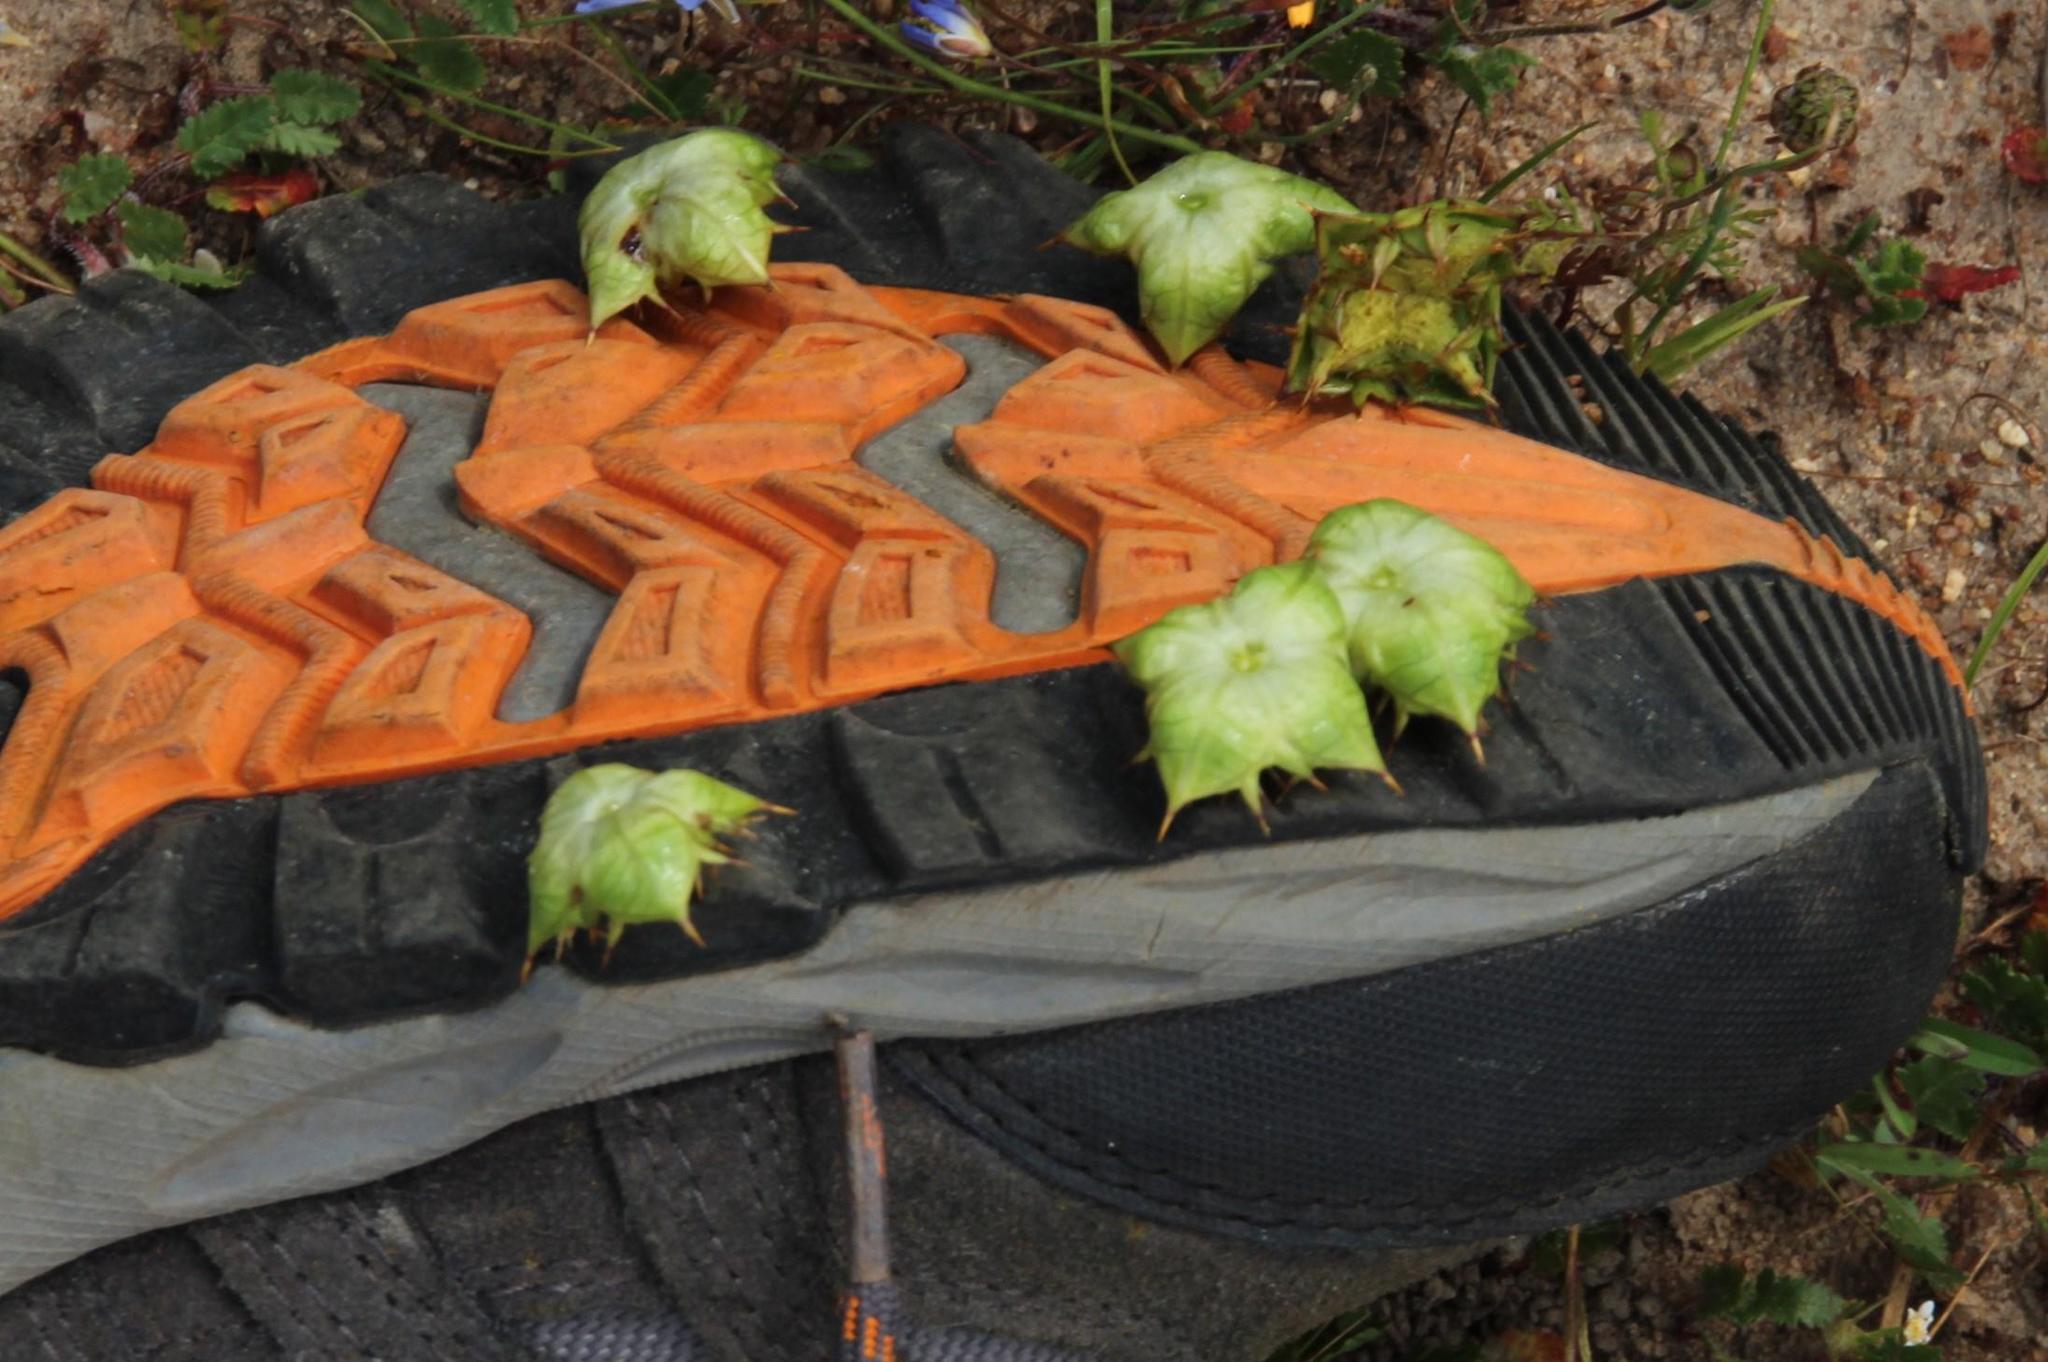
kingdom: Plantae
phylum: Tracheophyta
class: Magnoliopsida
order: Apiales
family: Apiaceae
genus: Arctopus
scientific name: Arctopus echinatus
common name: Platdoring
